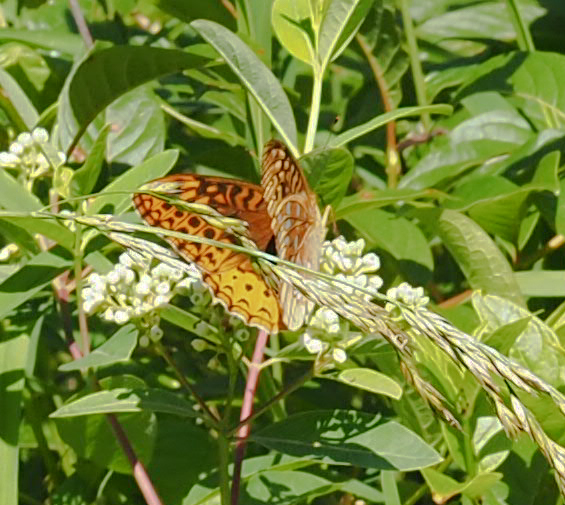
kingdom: Animalia
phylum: Arthropoda
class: Insecta
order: Lepidoptera
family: Nymphalidae
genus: Speyeria
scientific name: Speyeria cybele
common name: Great spangled fritillary
